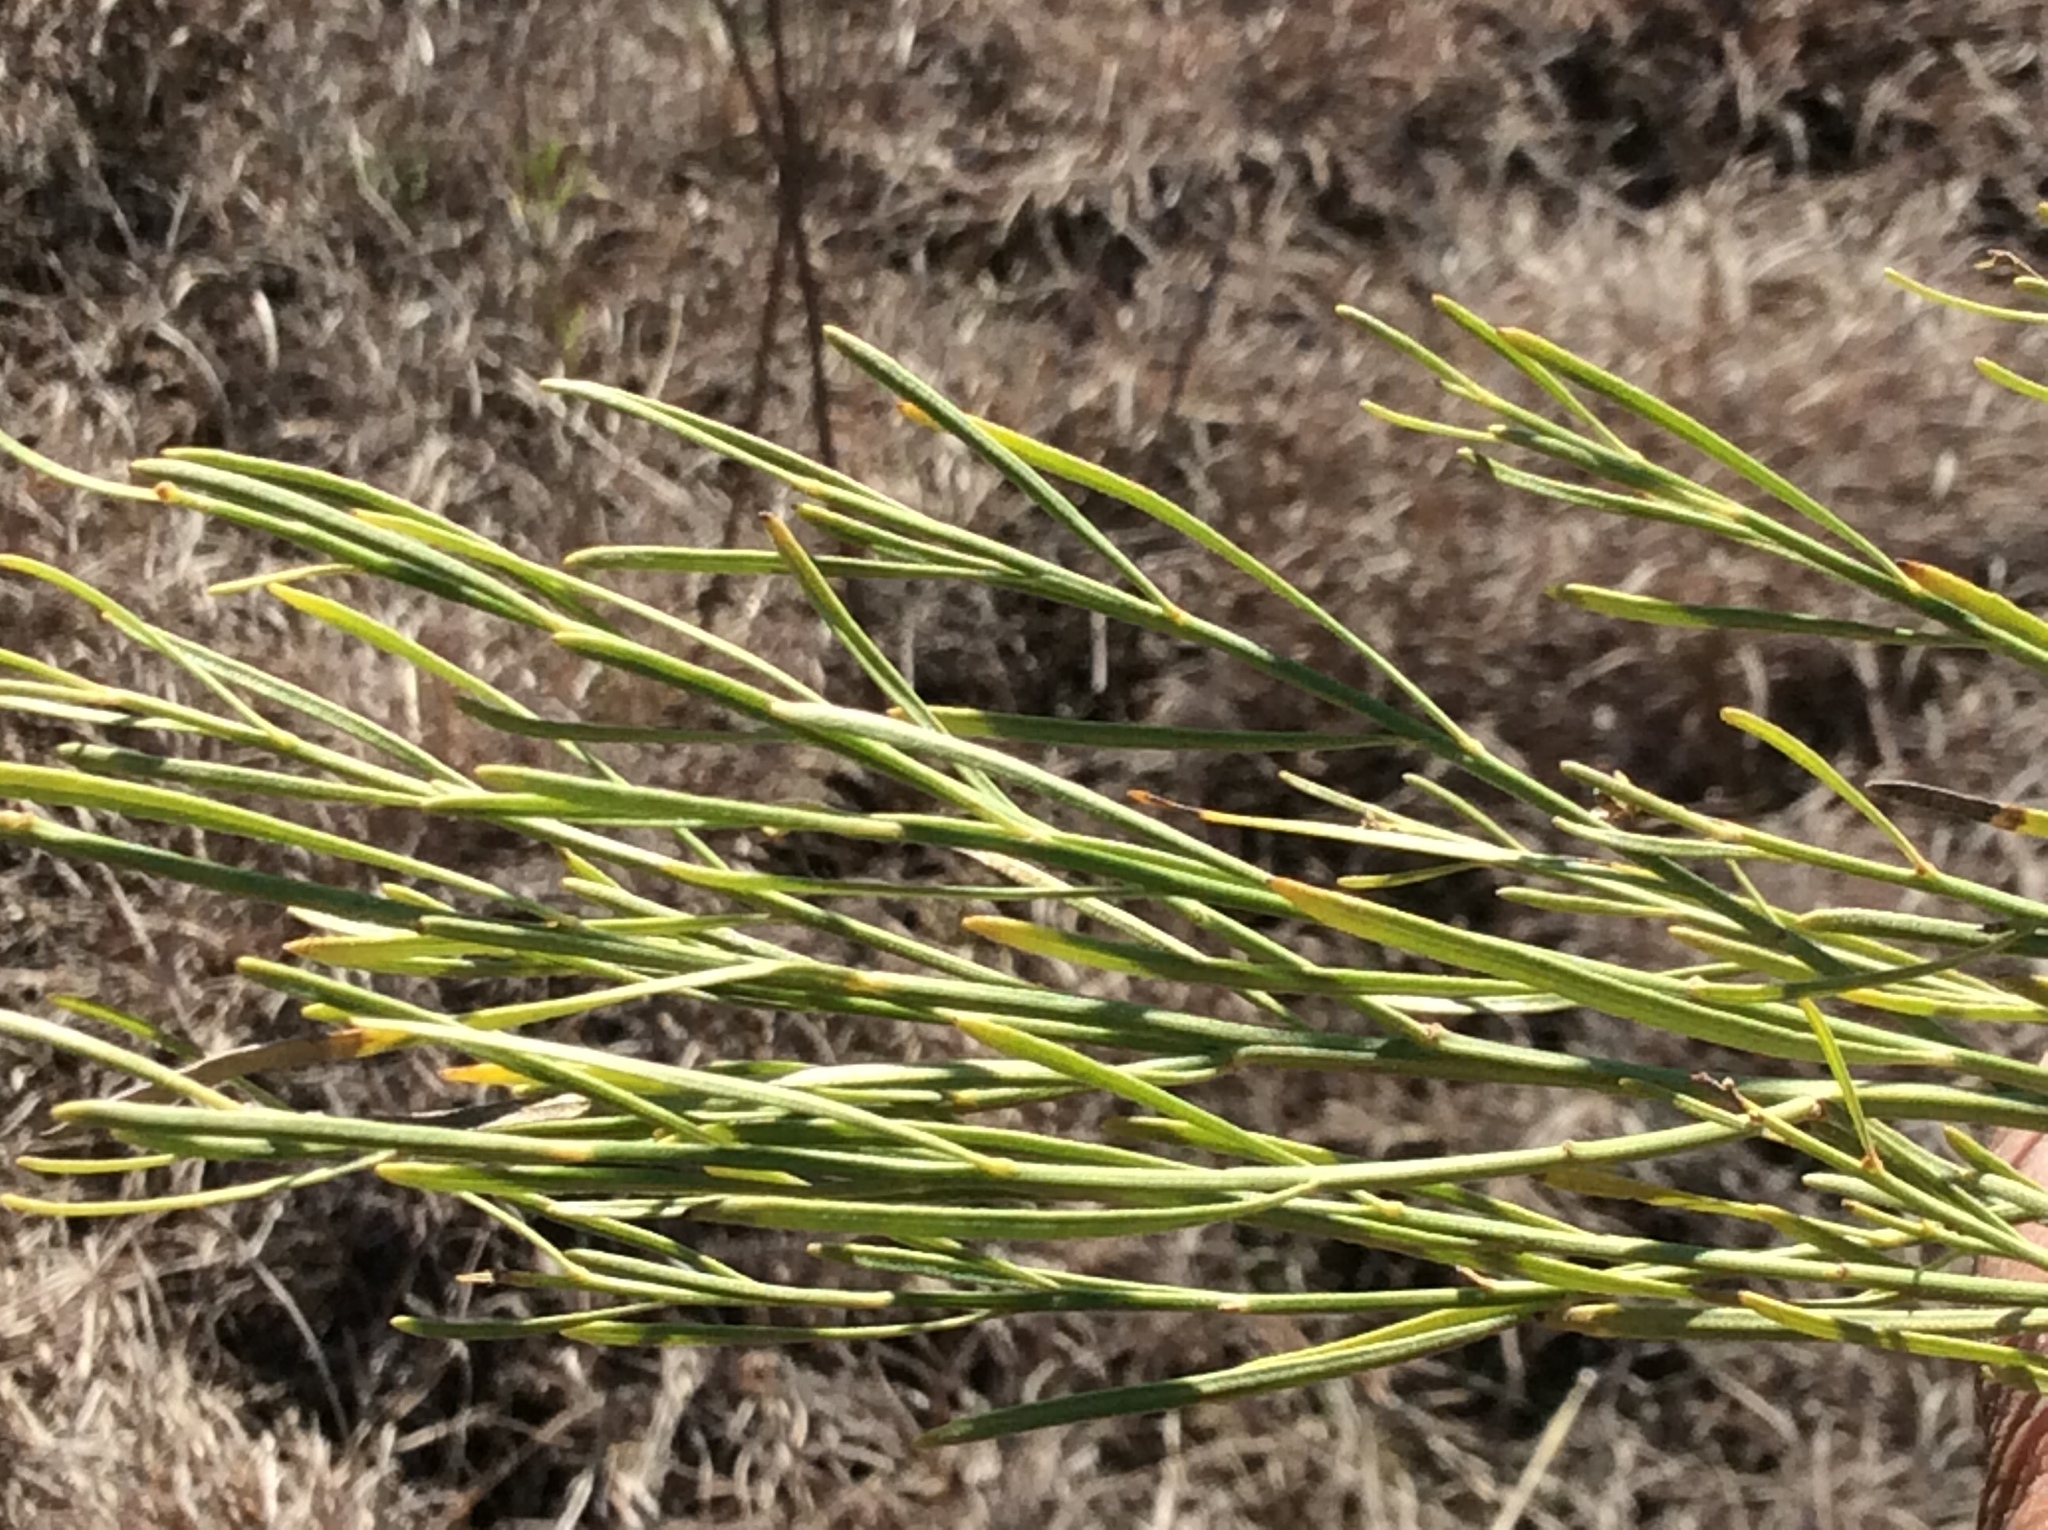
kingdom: Plantae
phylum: Tracheophyta
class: Magnoliopsida
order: Asterales
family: Asteraceae
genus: Baccharis
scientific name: Baccharis neglecta
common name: Roosevelt-weed
